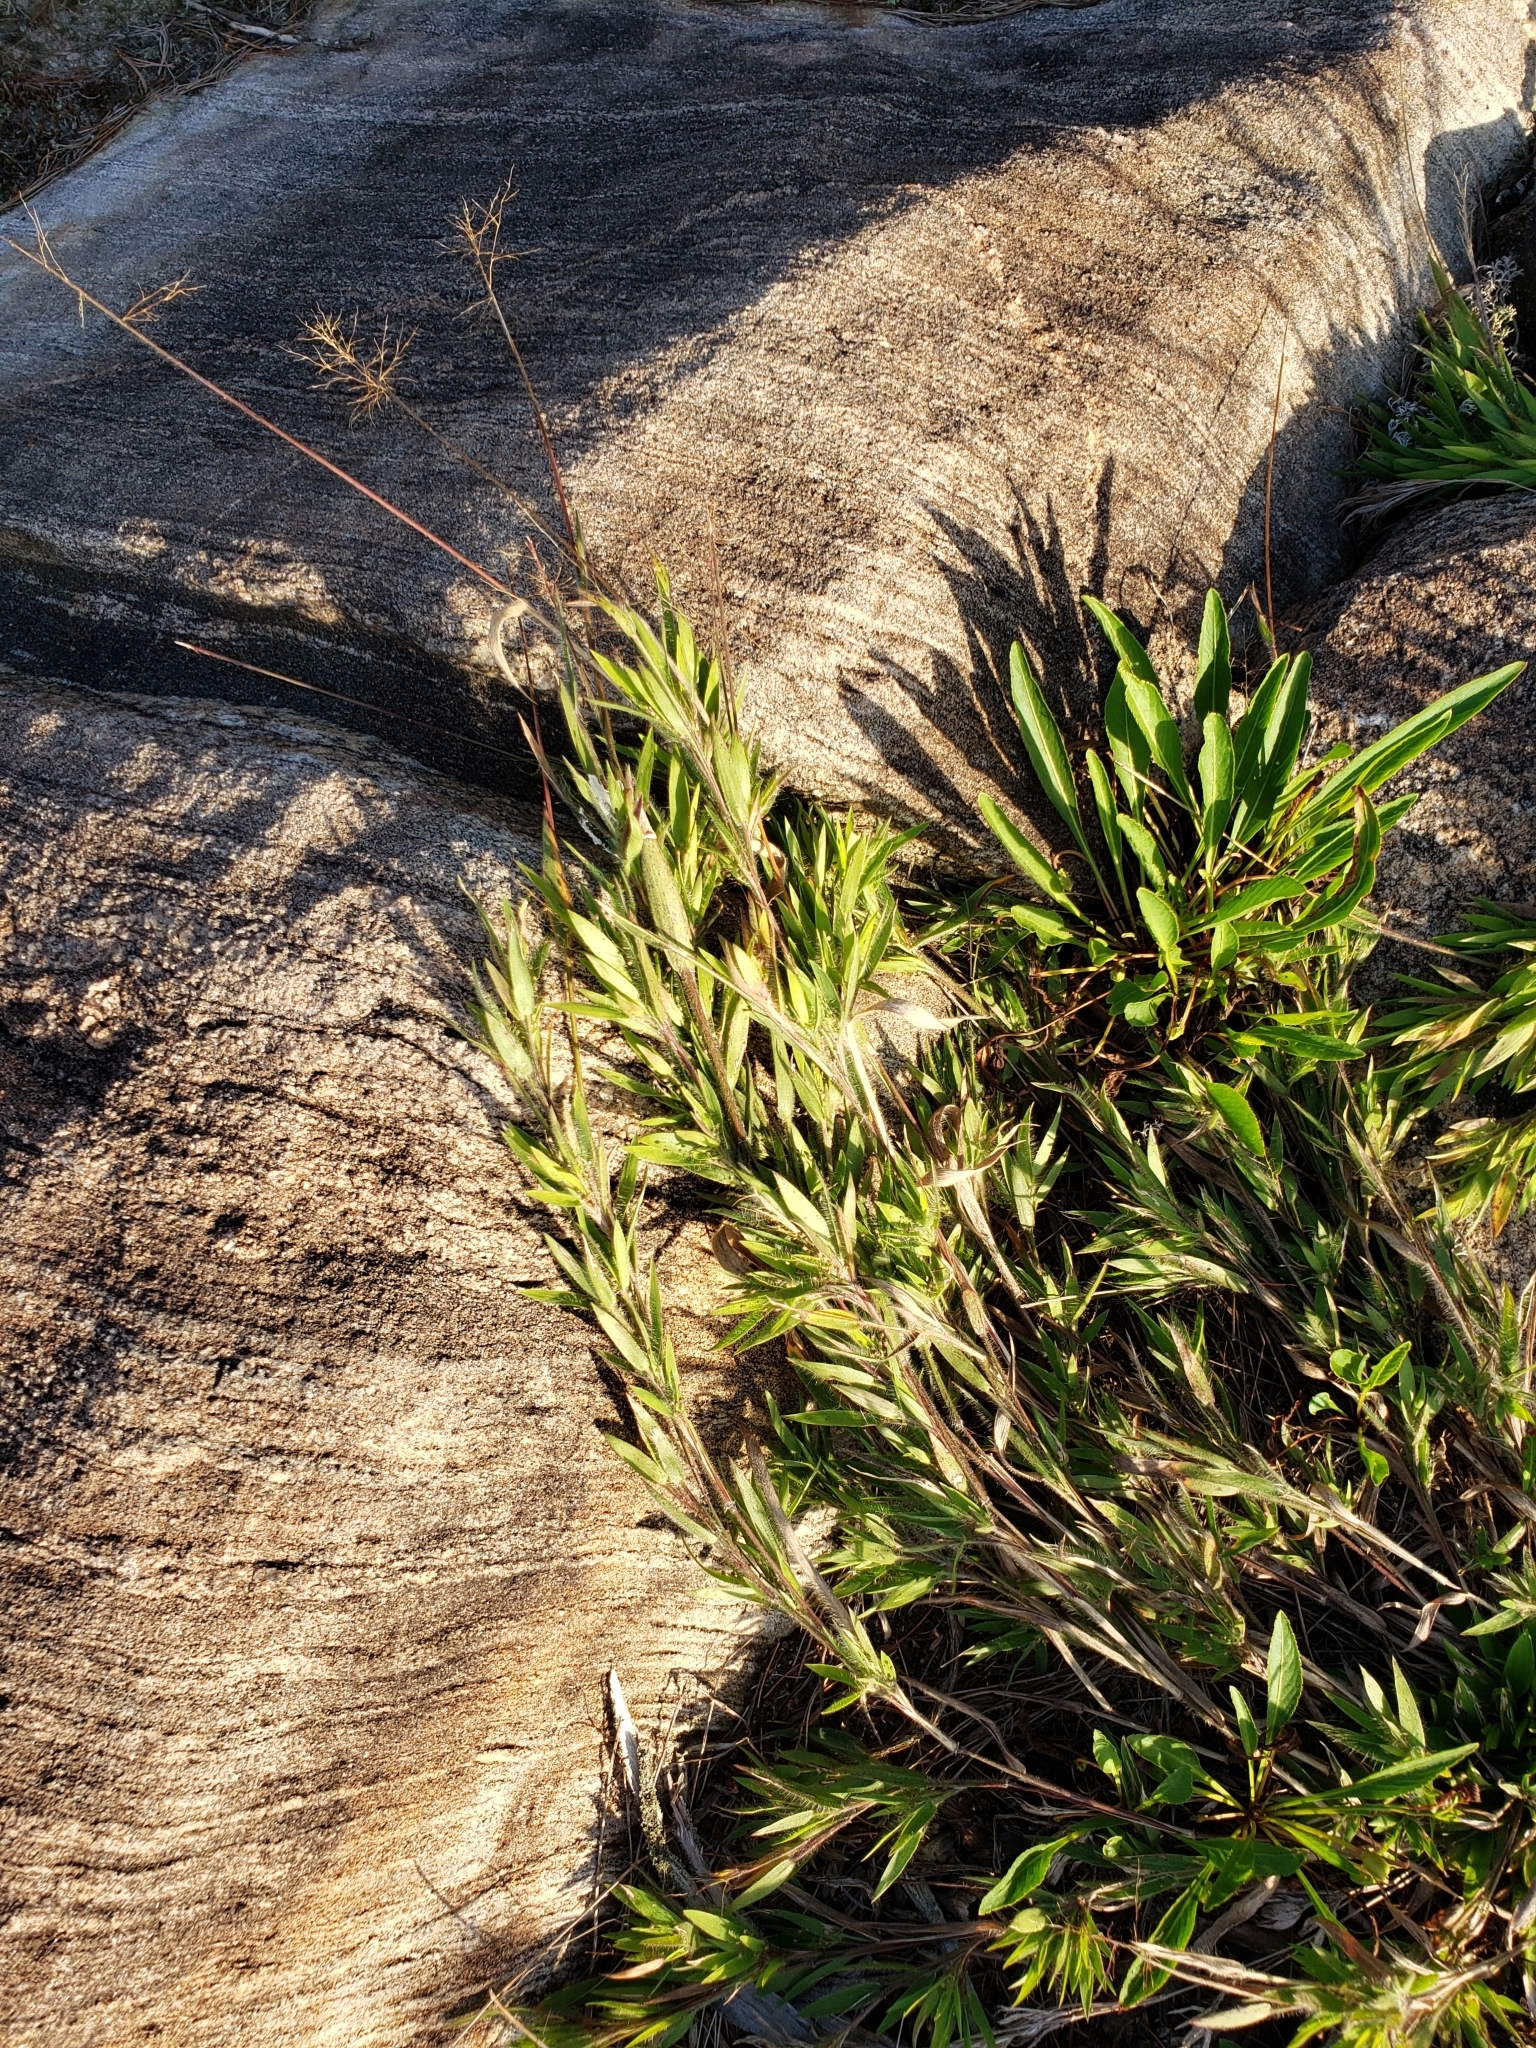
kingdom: Plantae
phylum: Tracheophyta
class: Liliopsida
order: Poales
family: Poaceae
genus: Dichanthelium
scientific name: Dichanthelium acuminatum
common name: Hairy panic grass
